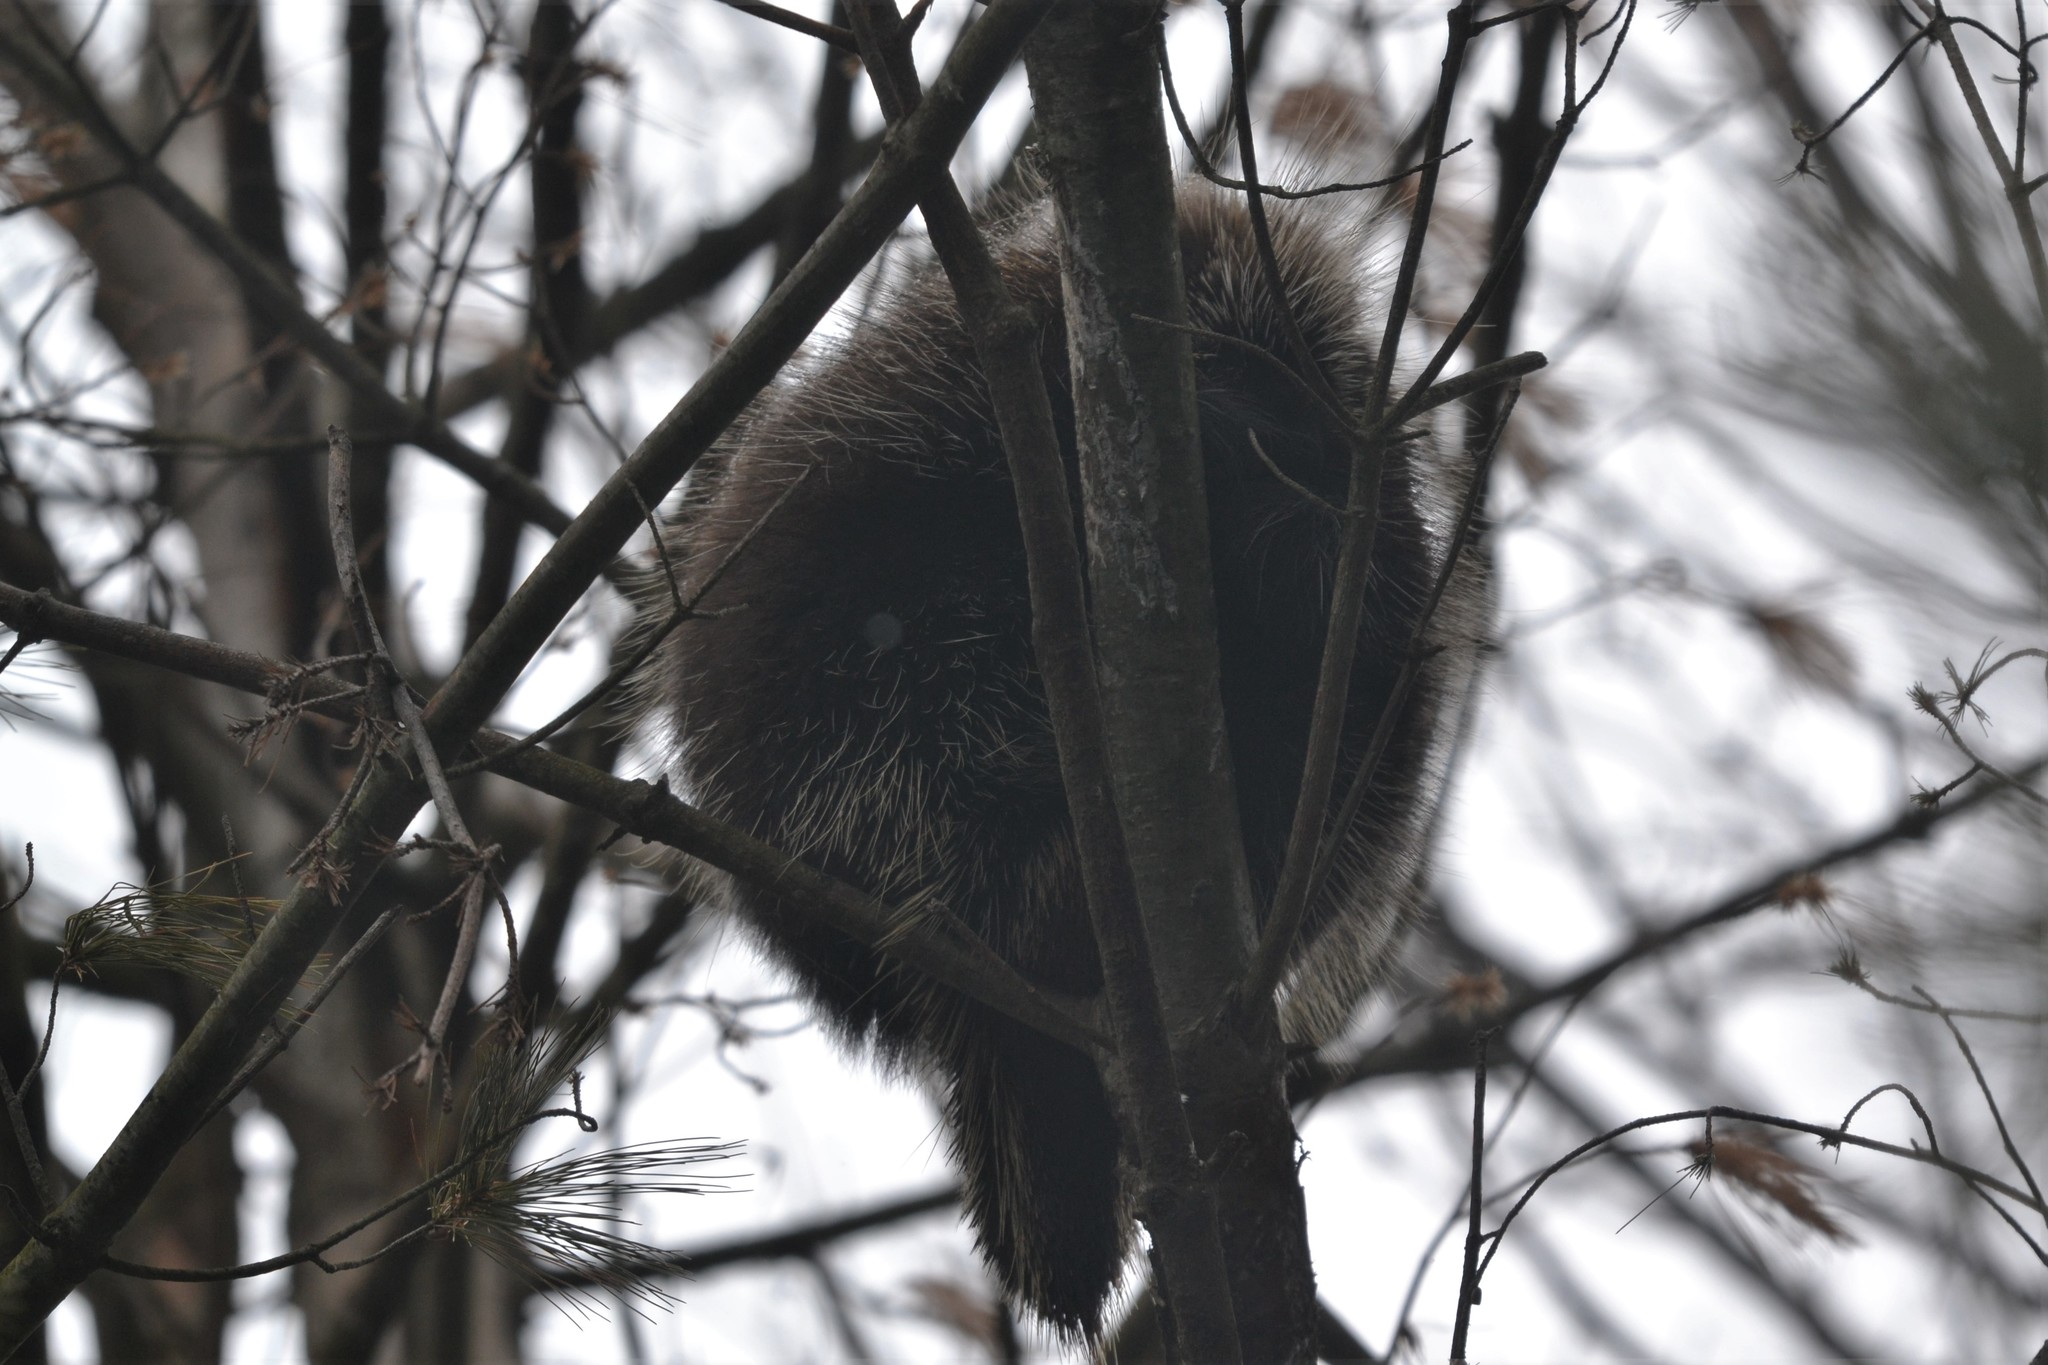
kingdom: Animalia
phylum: Chordata
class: Mammalia
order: Rodentia
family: Erethizontidae
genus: Erethizon
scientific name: Erethizon dorsatus
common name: North american porcupine
